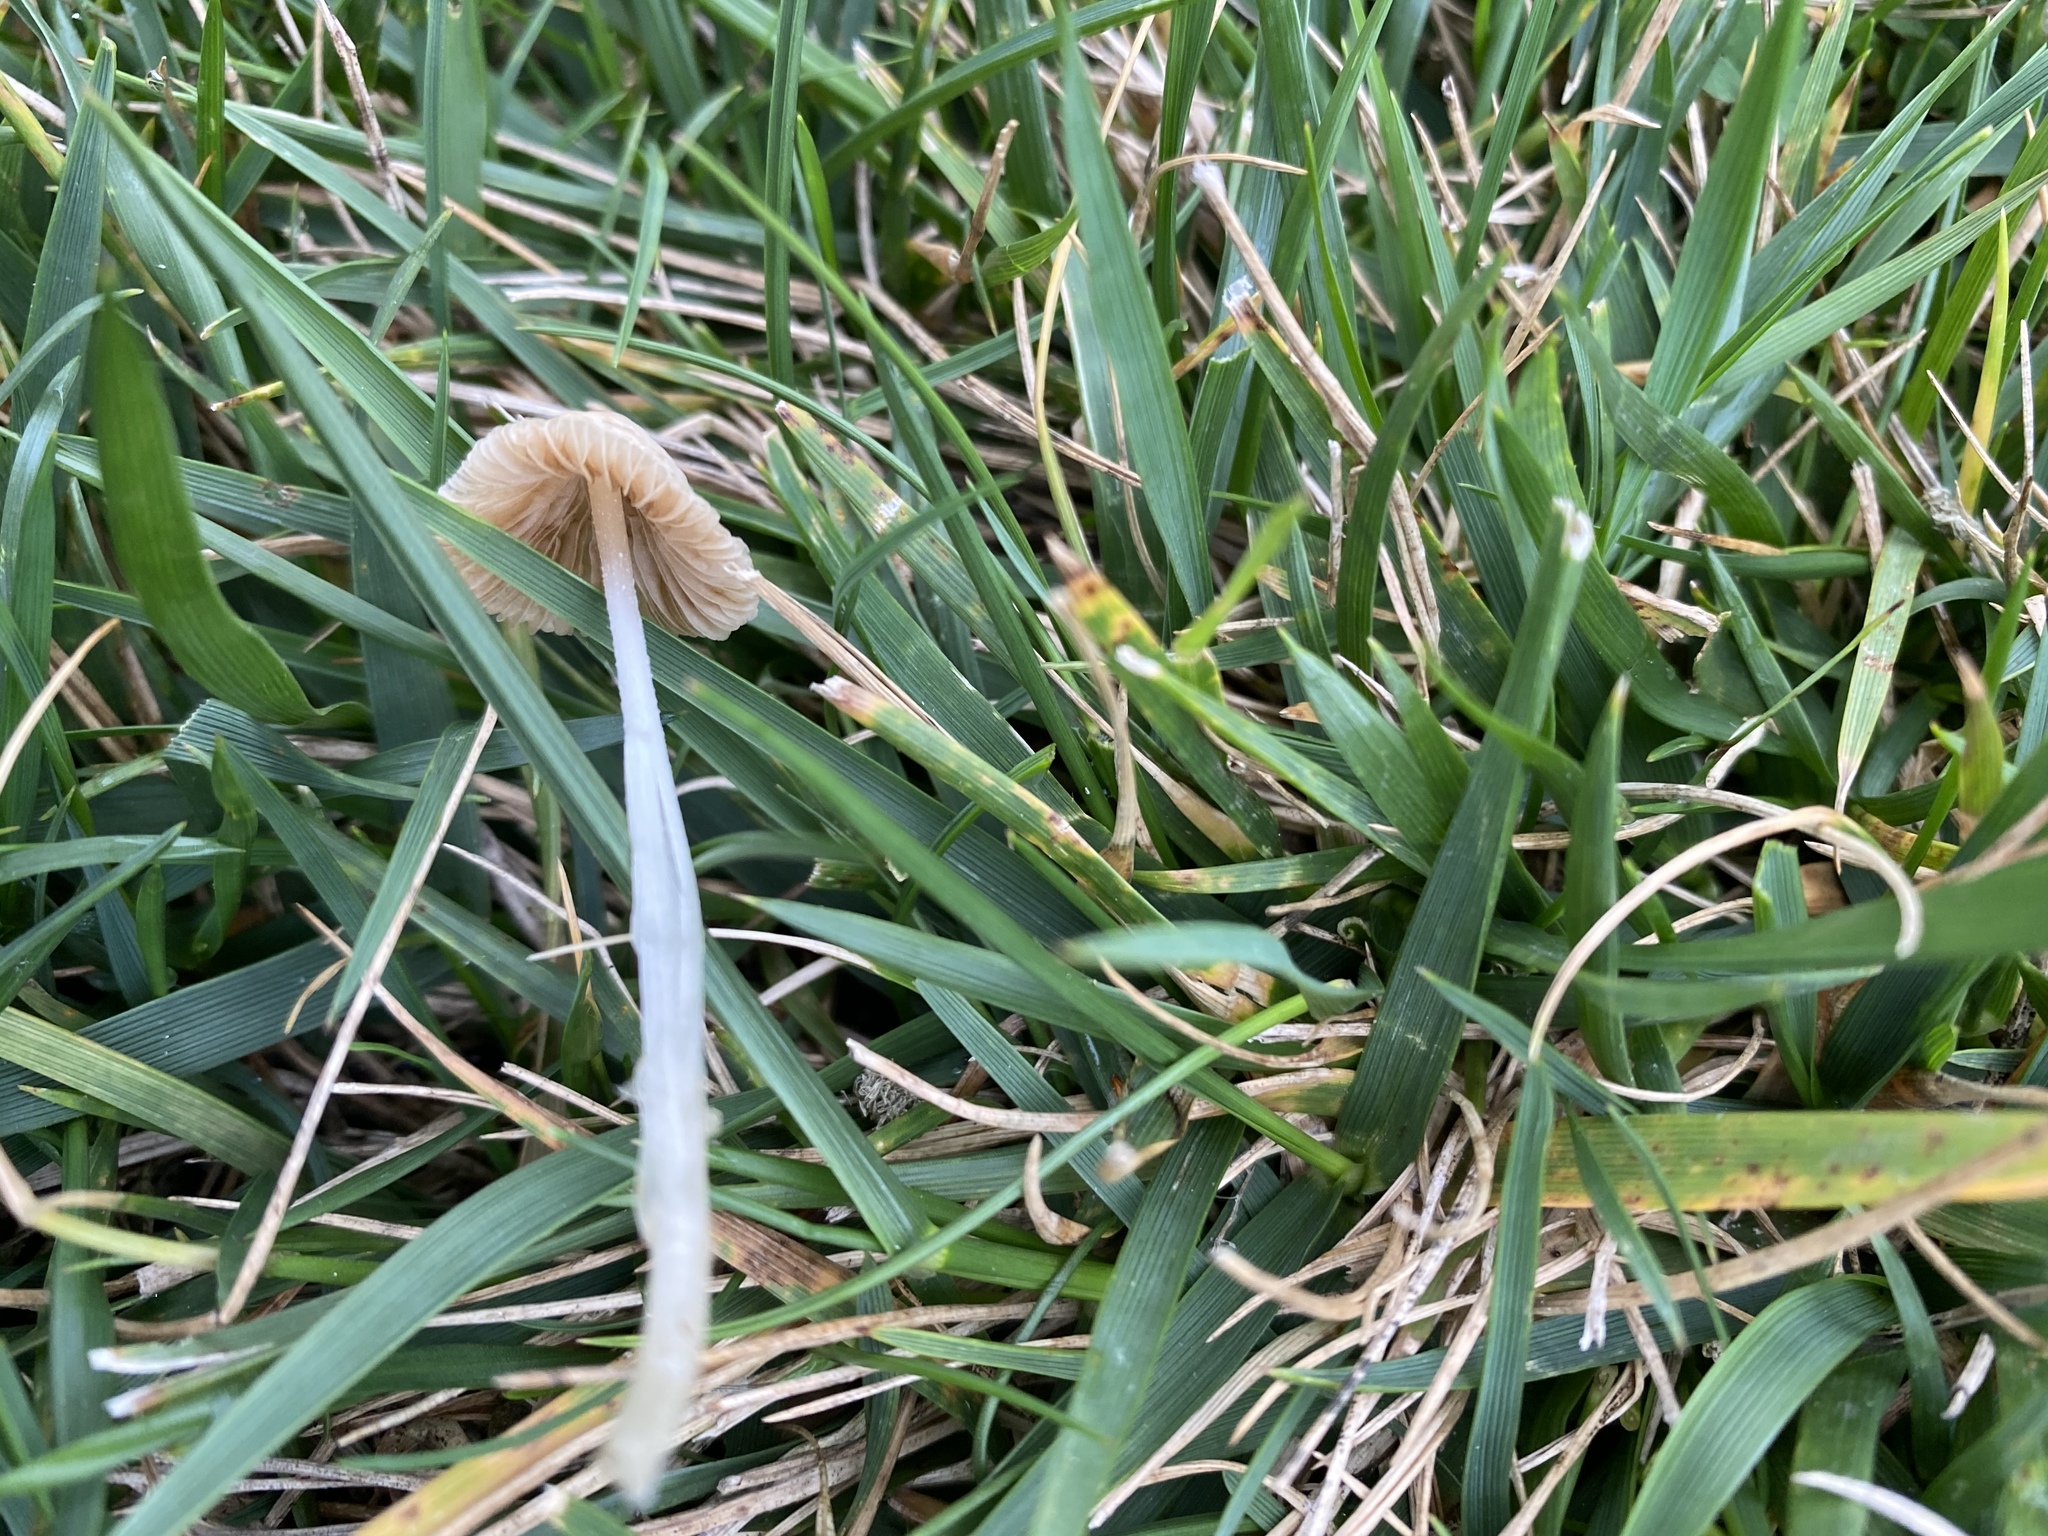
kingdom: Fungi
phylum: Basidiomycota
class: Agaricomycetes
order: Agaricales
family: Bolbitiaceae
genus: Conocybe
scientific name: Conocybe apala
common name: Milky conecap
